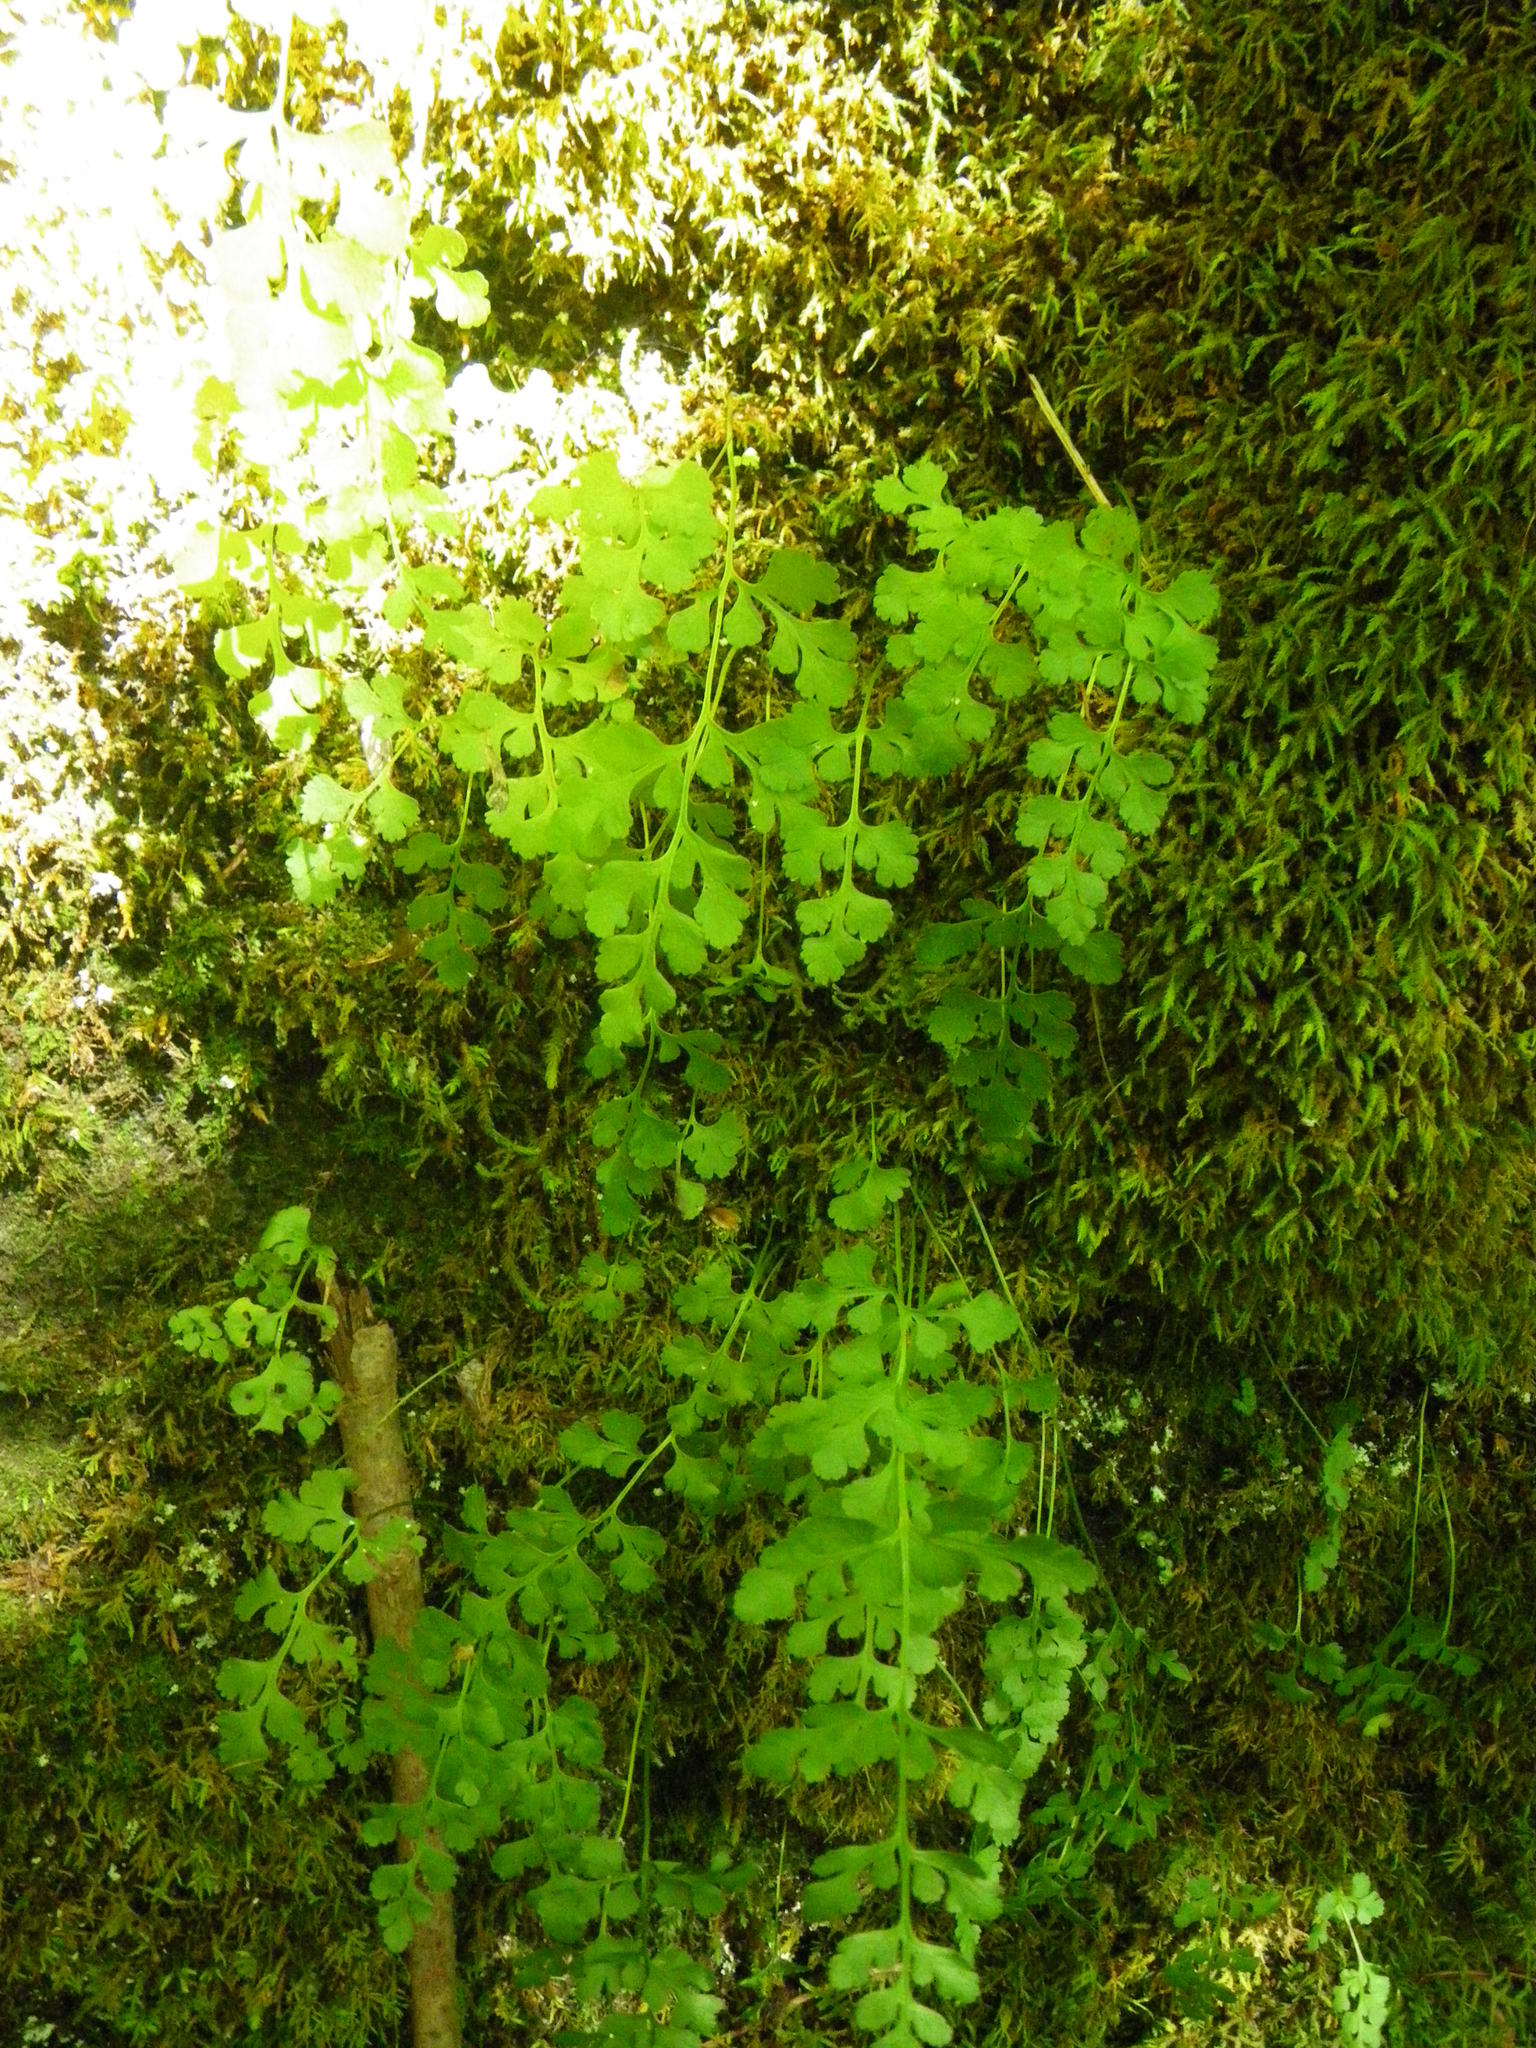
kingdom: Plantae
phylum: Tracheophyta
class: Polypodiopsida
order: Polypodiales
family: Pteridaceae
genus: Cryptogramma
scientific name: Cryptogramma stelleri
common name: Cliff-brake
